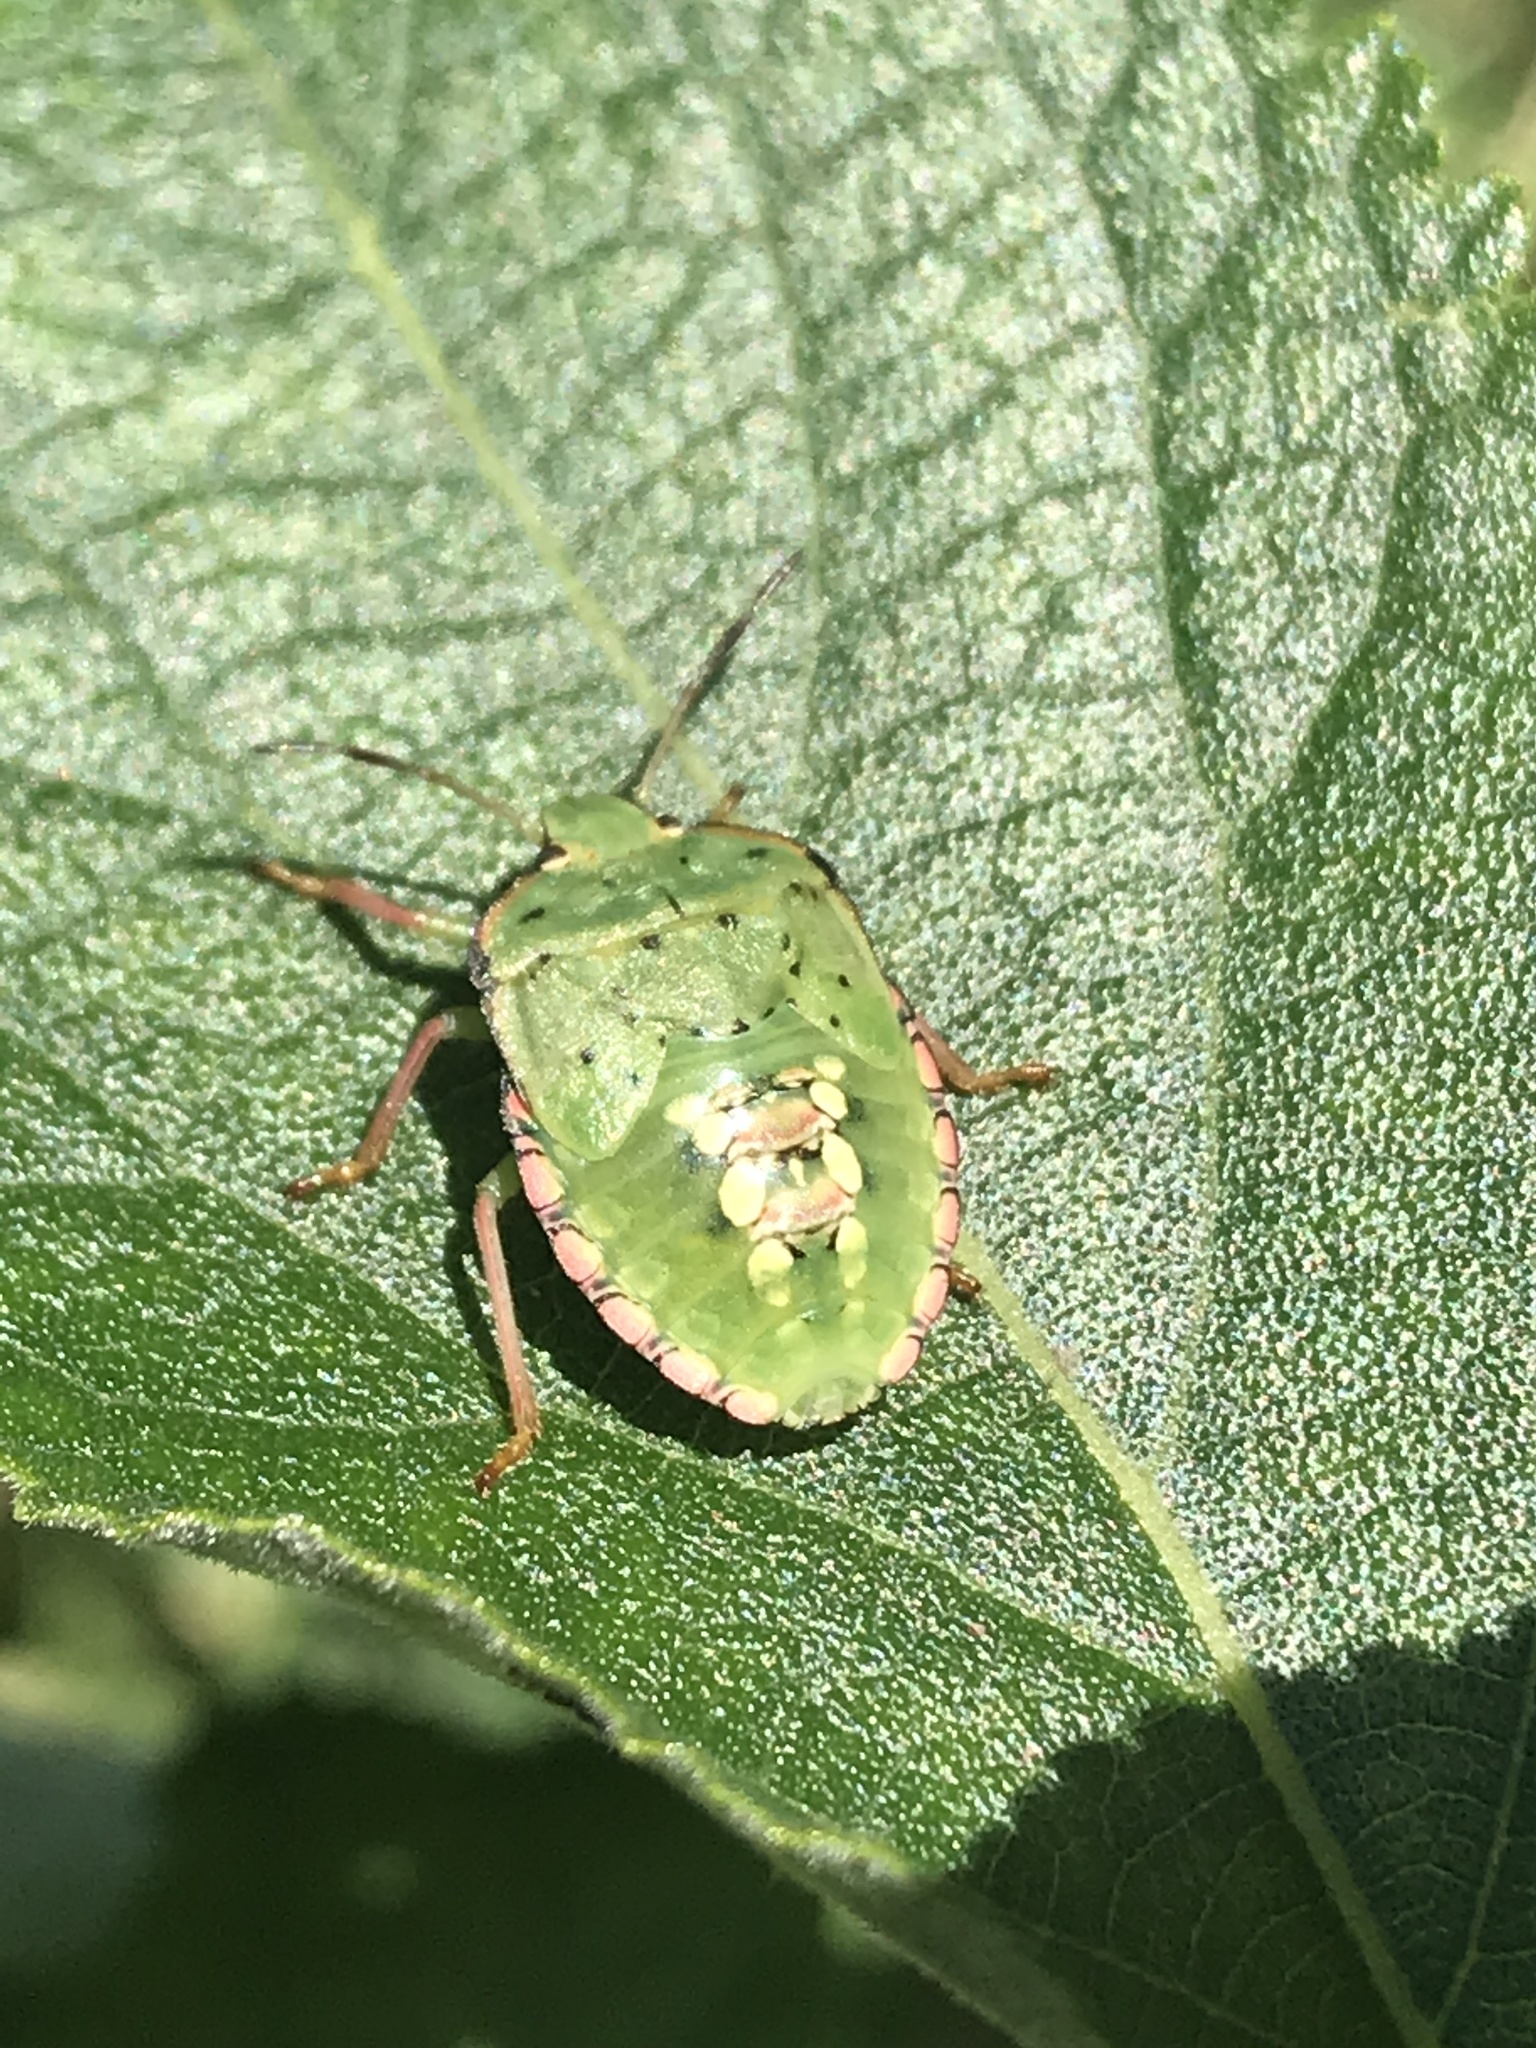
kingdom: Animalia
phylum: Arthropoda
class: Insecta
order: Hemiptera
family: Pentatomidae
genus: Nezara
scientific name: Nezara viridula
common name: Southern green stink bug
